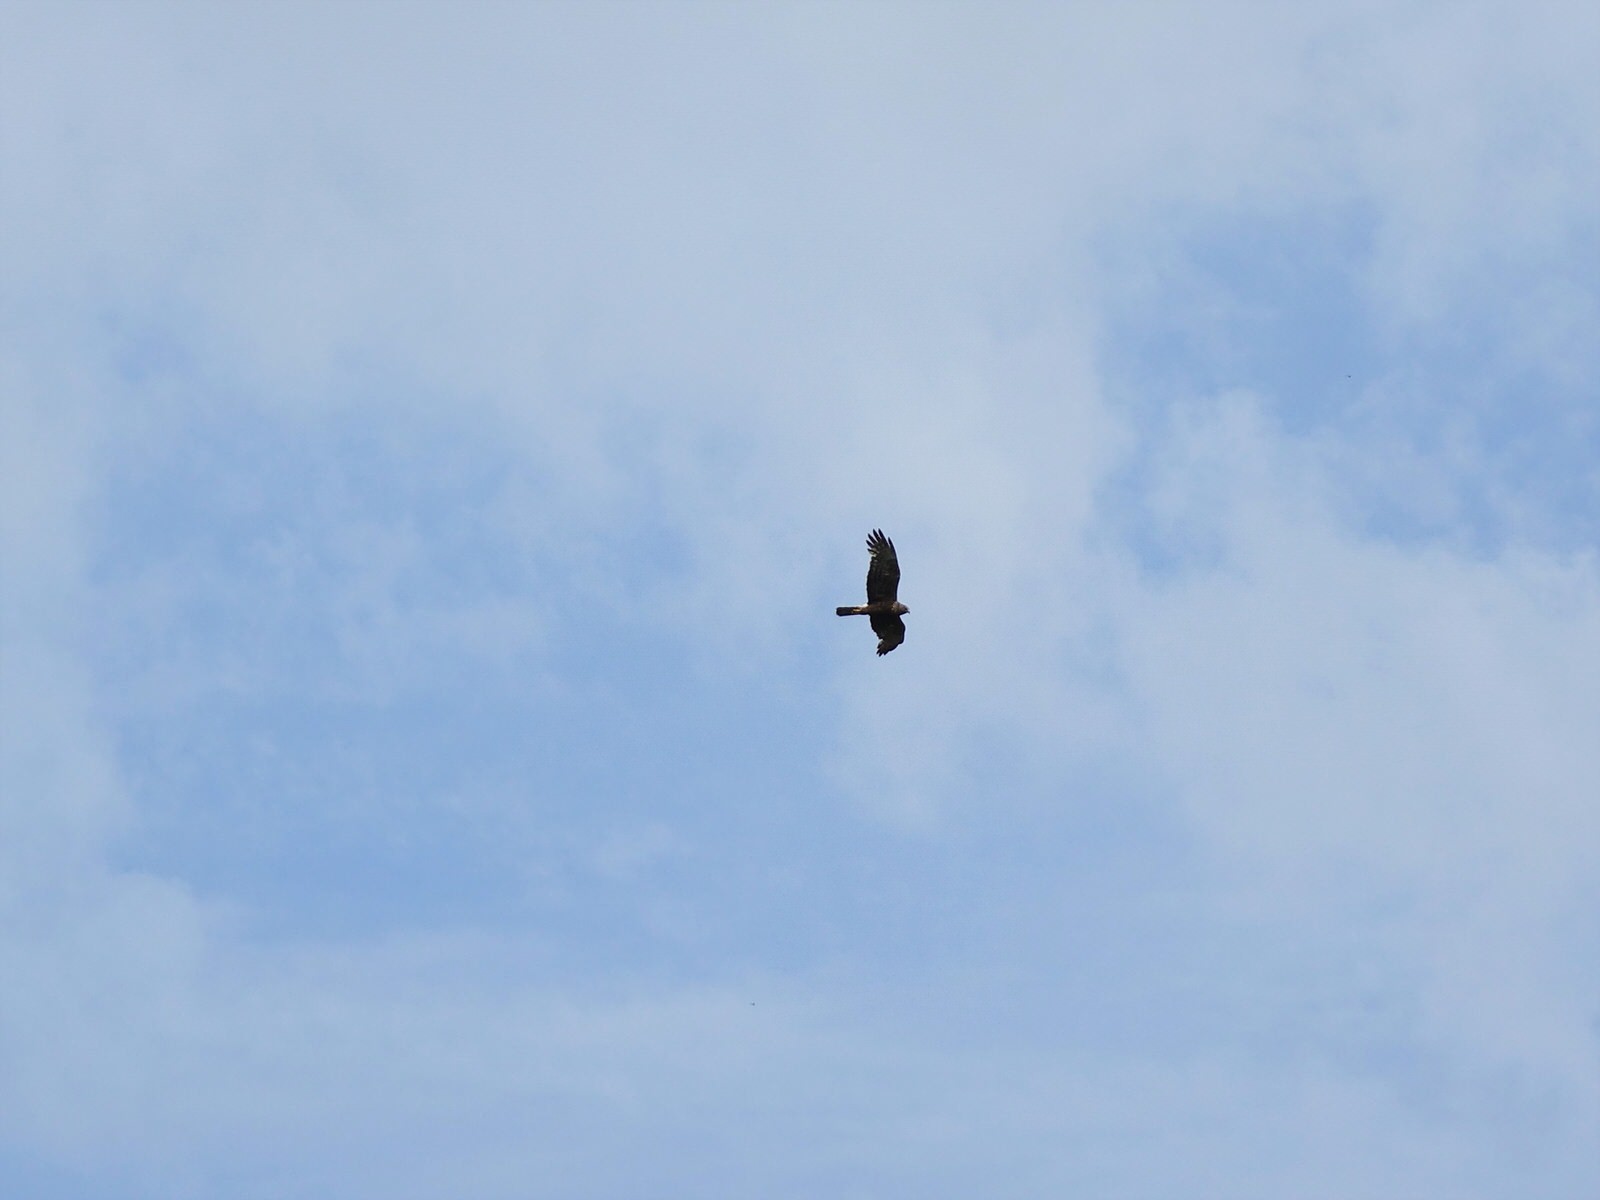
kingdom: Animalia
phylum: Chordata
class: Aves
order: Accipitriformes
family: Accipitridae
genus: Circus
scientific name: Circus approximans
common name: Swamp harrier
